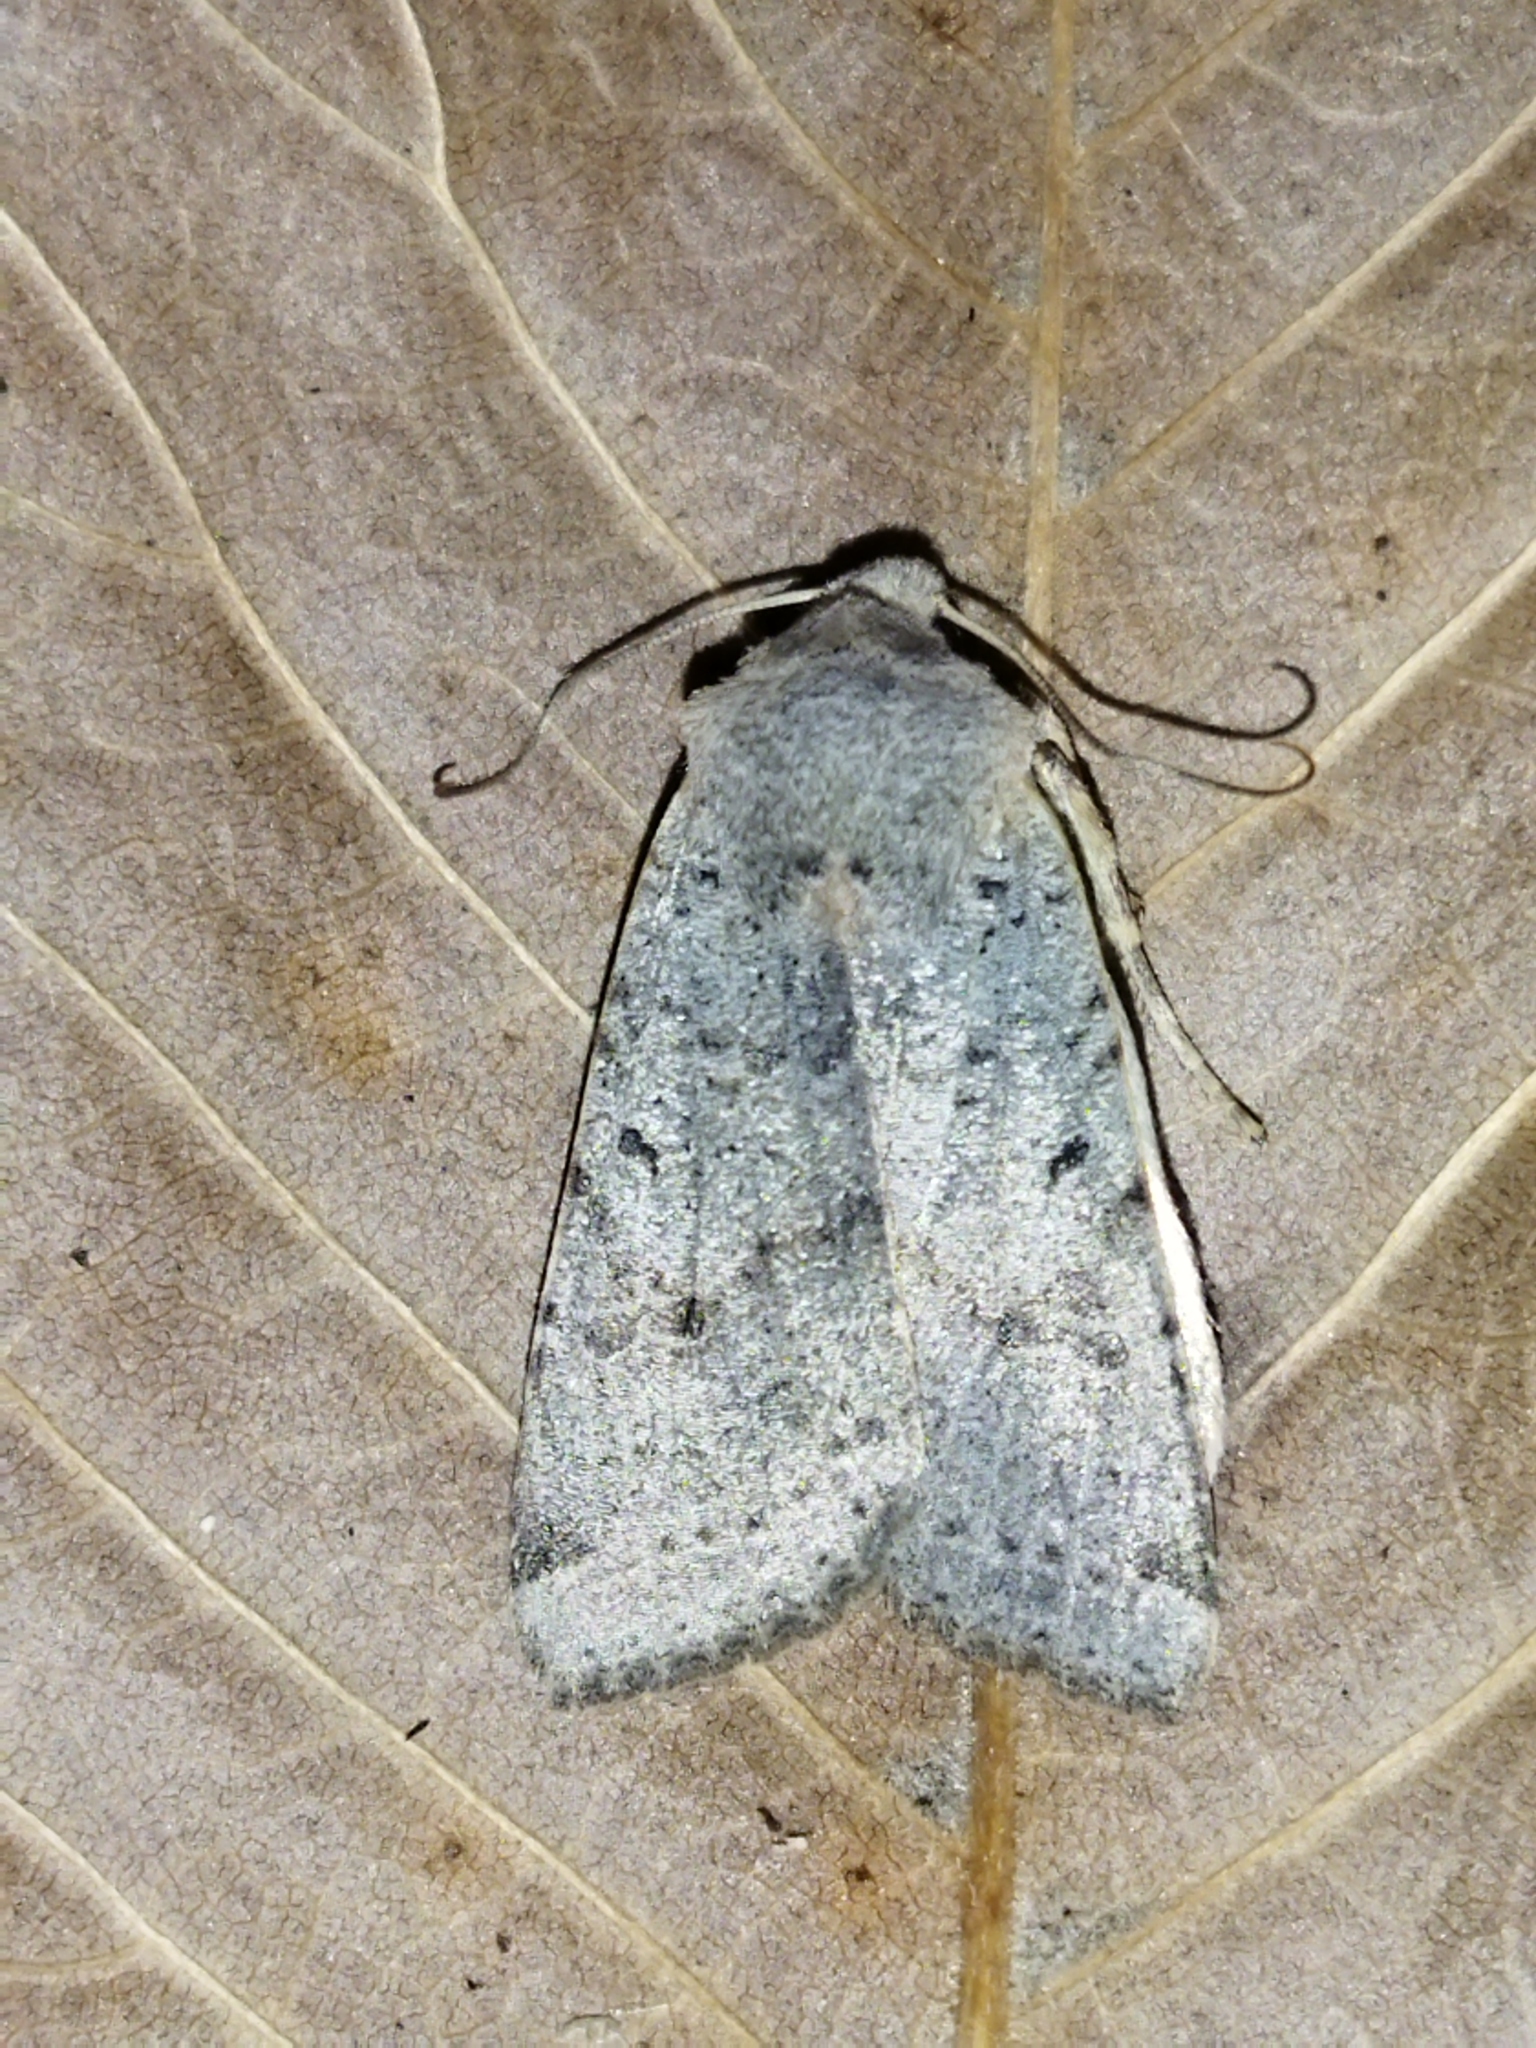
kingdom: Animalia
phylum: Arthropoda
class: Insecta
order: Lepidoptera
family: Noctuidae
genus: Agrochola
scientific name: Agrochola lychnidis
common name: Beaded chestnut
